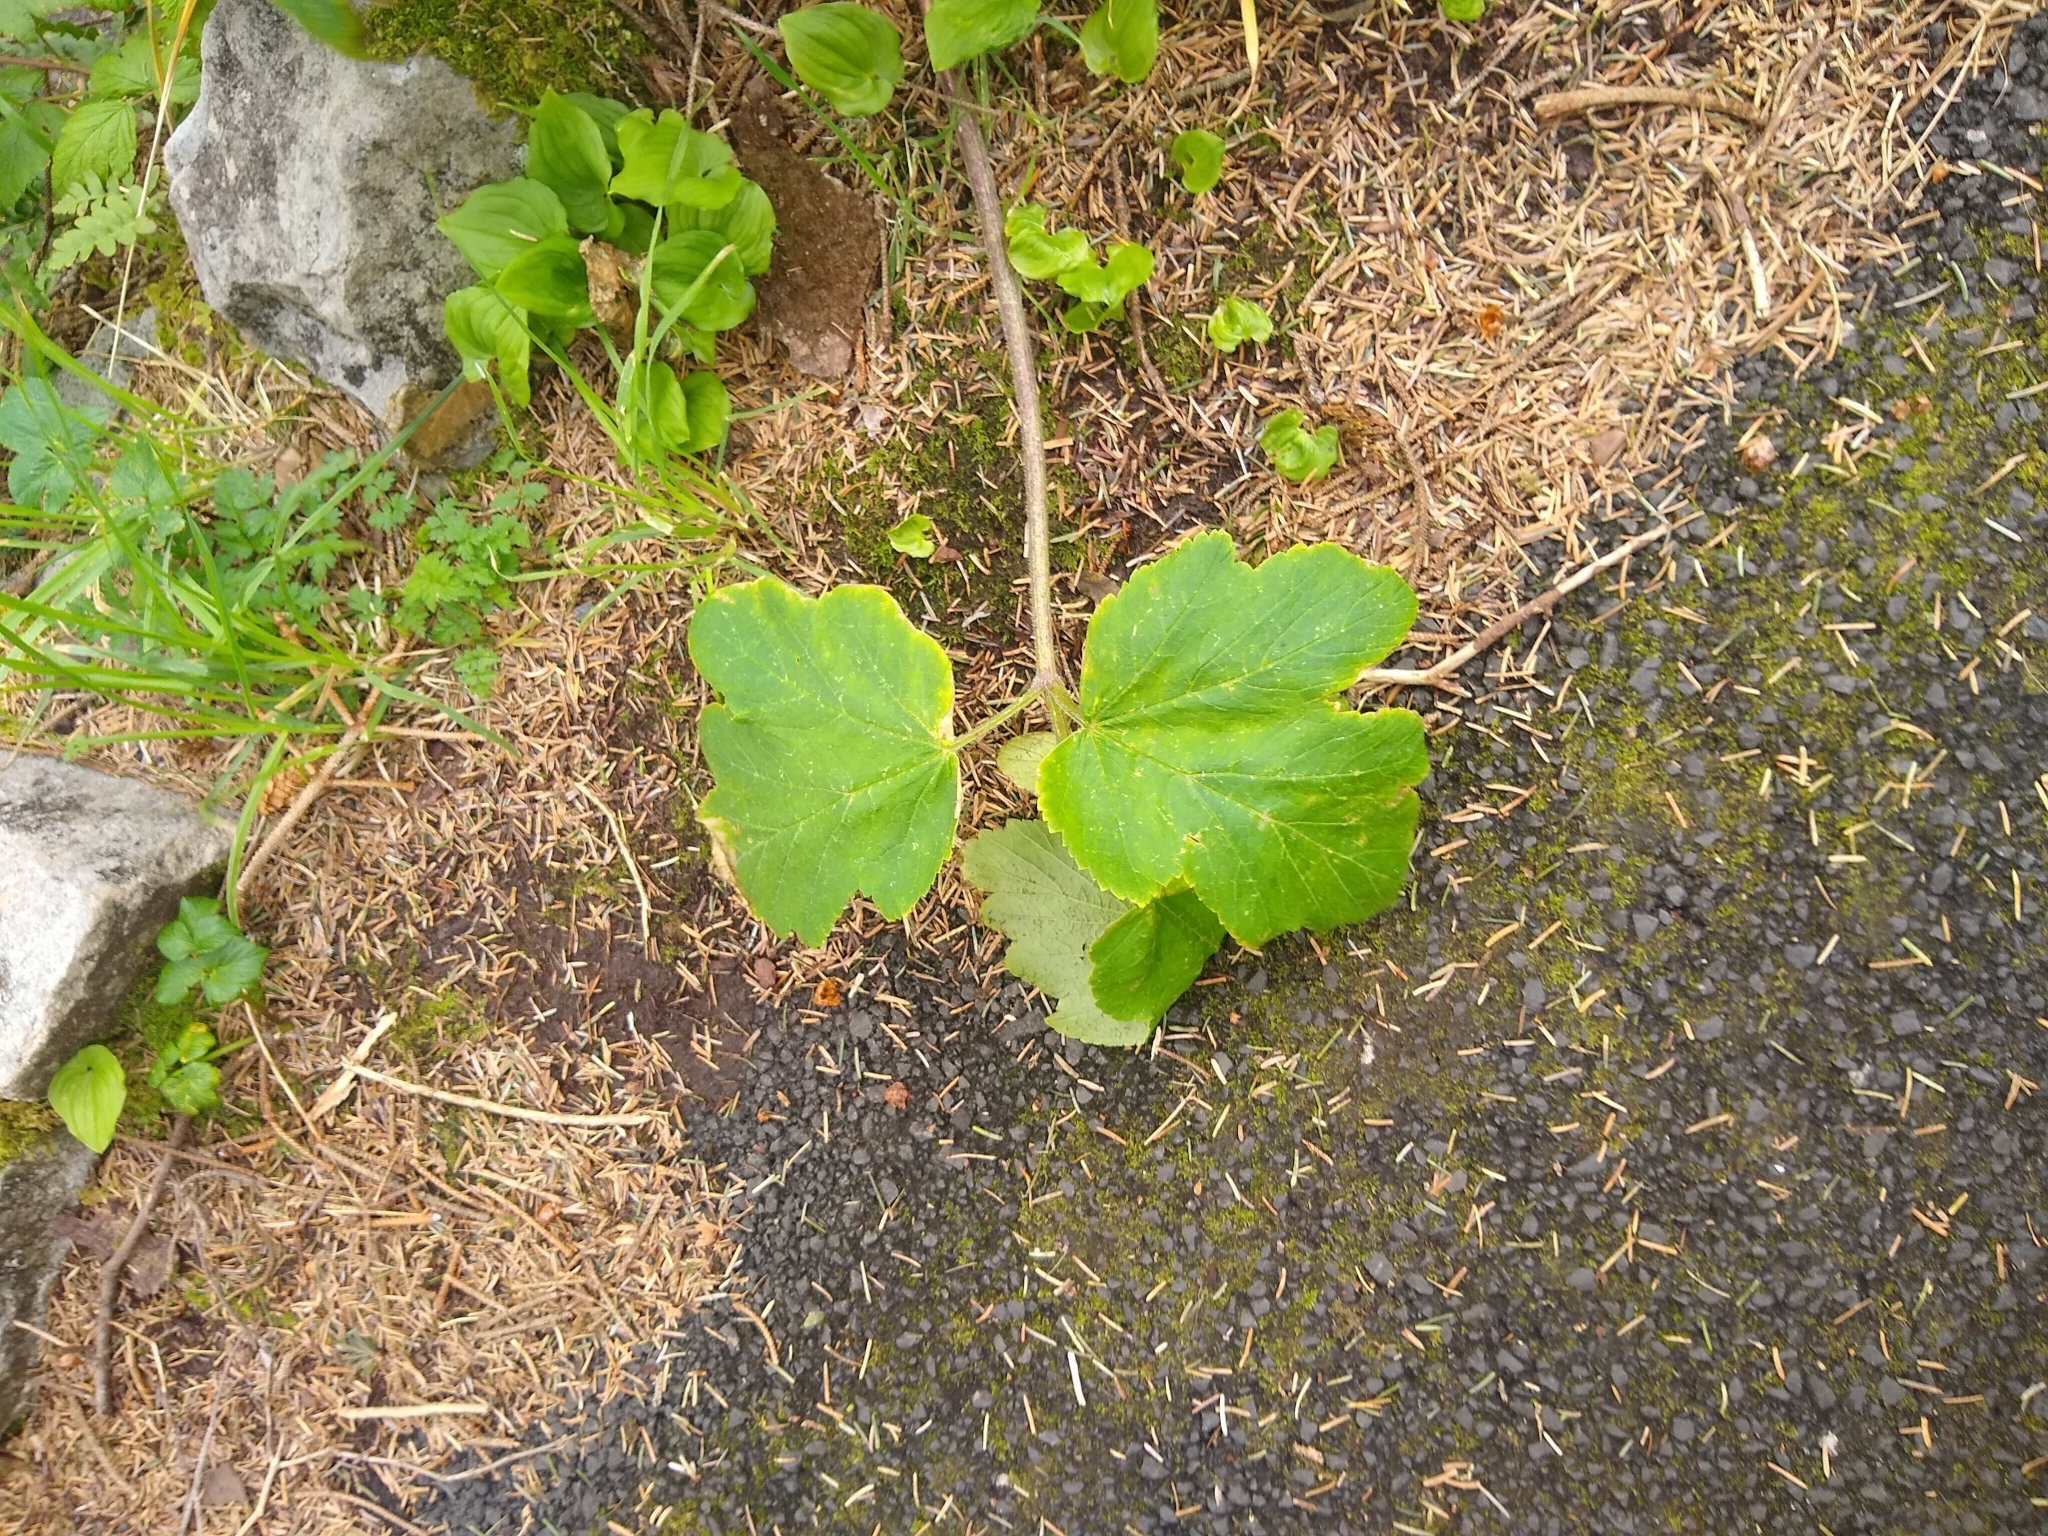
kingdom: Plantae
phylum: Tracheophyta
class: Magnoliopsida
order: Apiales
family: Apiaceae
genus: Heracleum
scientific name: Heracleum maximum
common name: American cow parsnip
